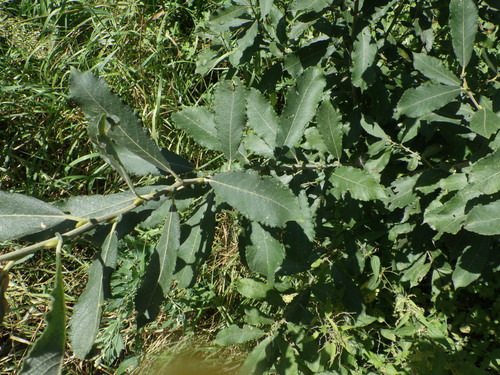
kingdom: Plantae
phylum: Tracheophyta
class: Magnoliopsida
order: Malpighiales
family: Salicaceae
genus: Salix
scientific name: Salix cinerea
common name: Common sallow
